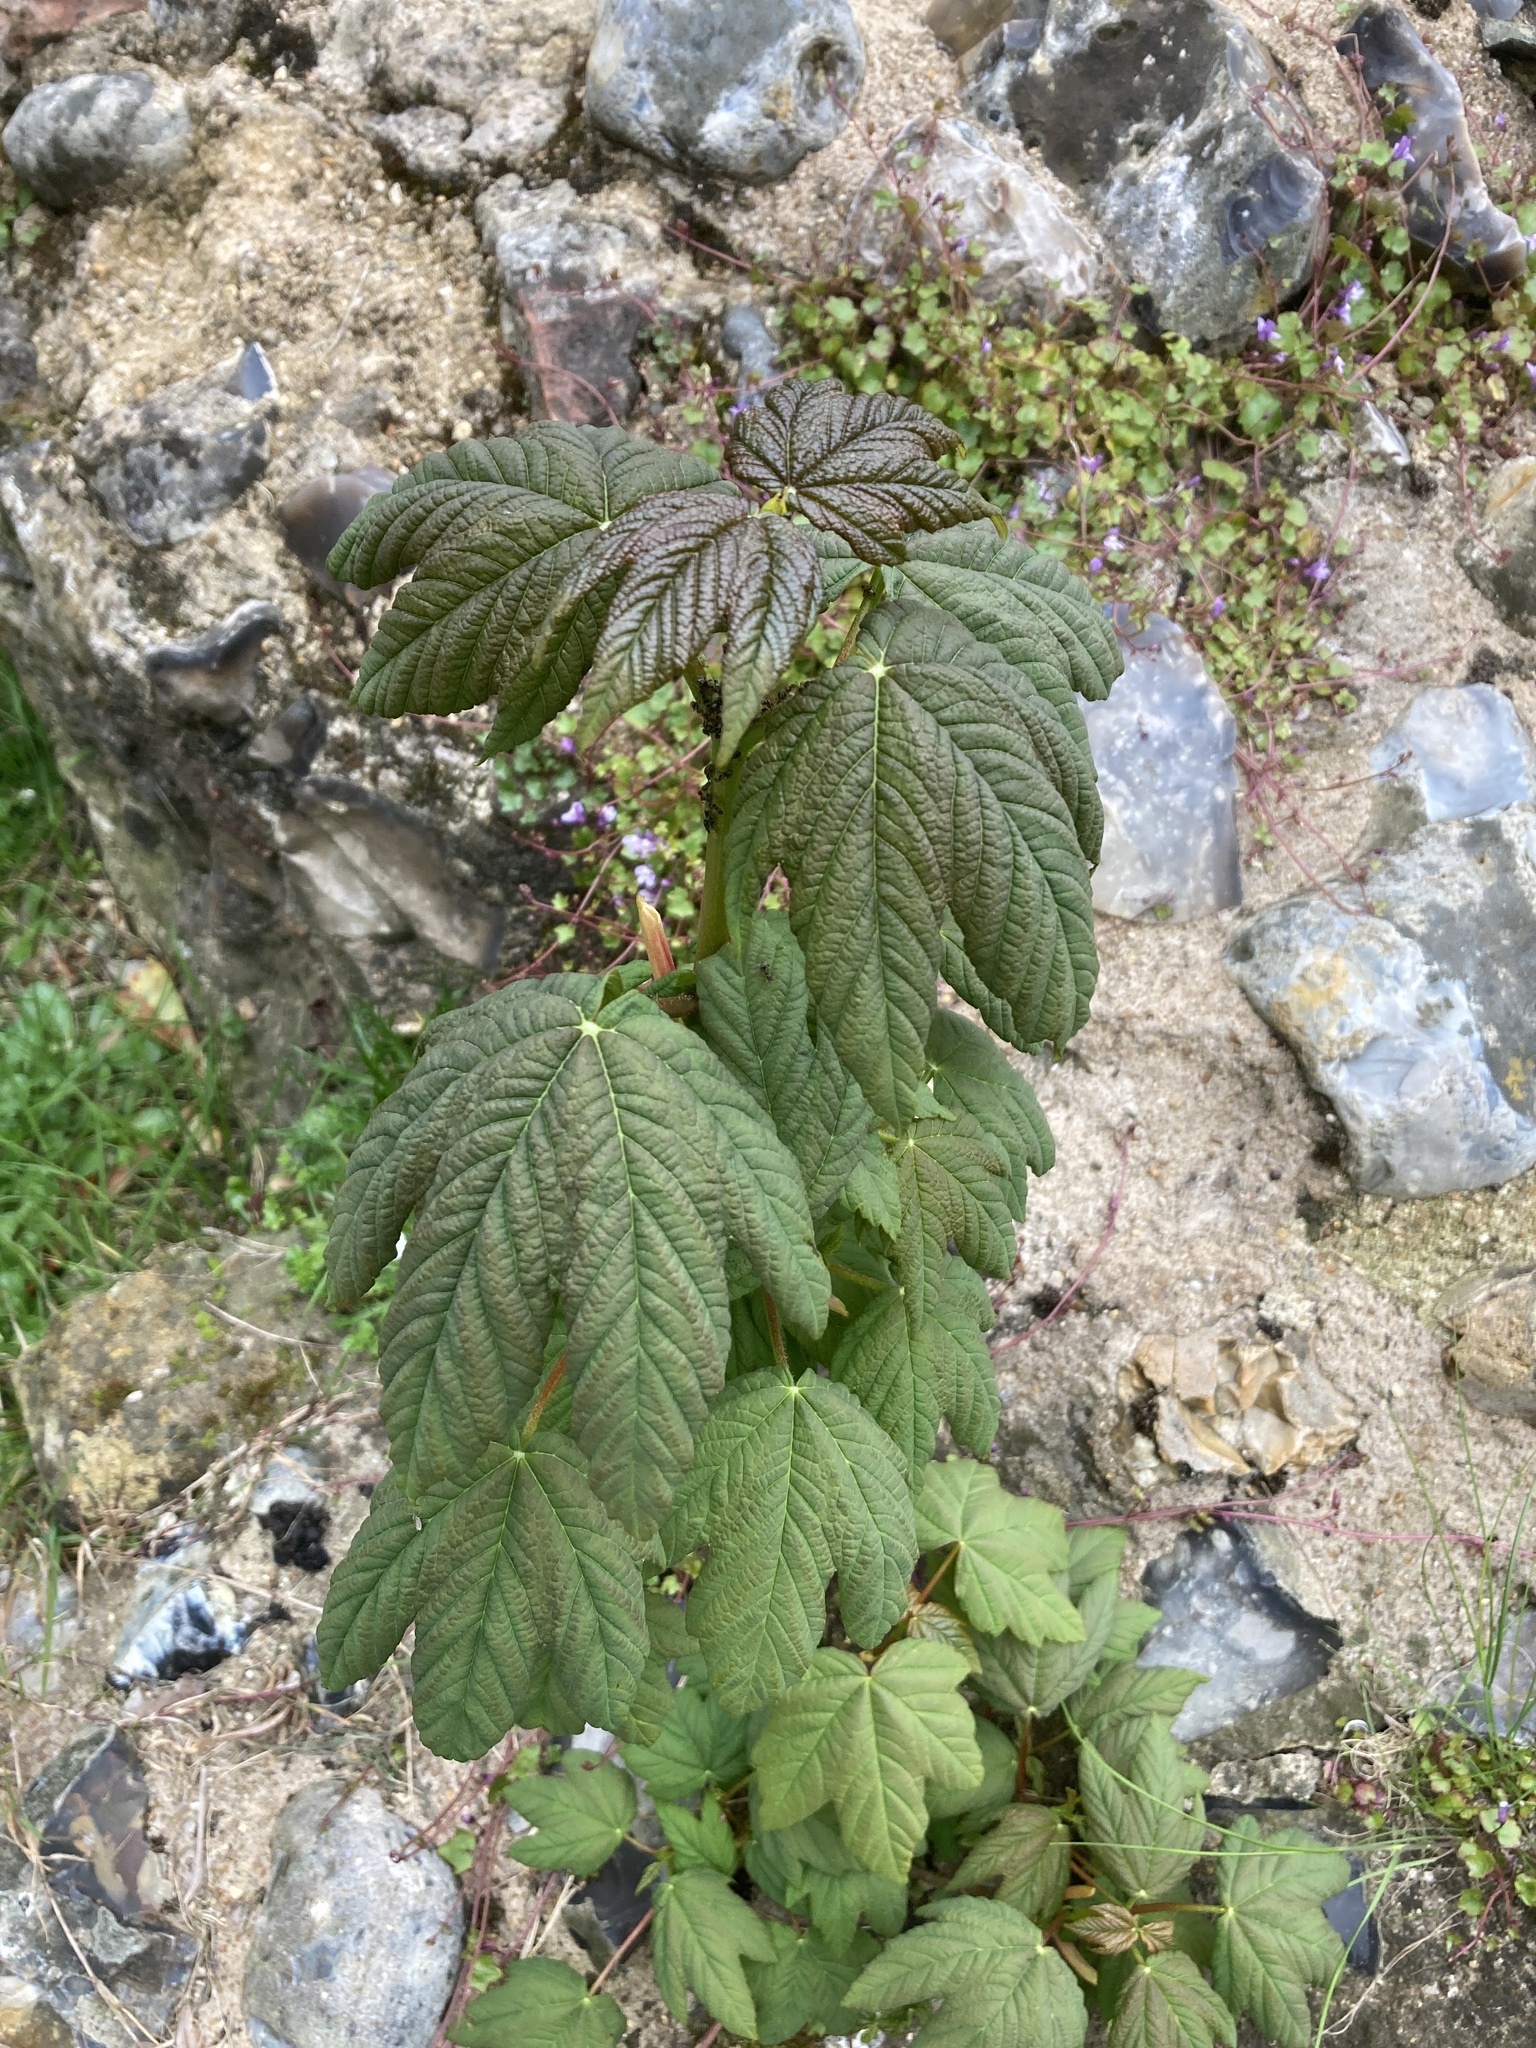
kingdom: Plantae
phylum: Tracheophyta
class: Magnoliopsida
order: Sapindales
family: Sapindaceae
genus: Acer
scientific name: Acer pseudoplatanus
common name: Sycamore
